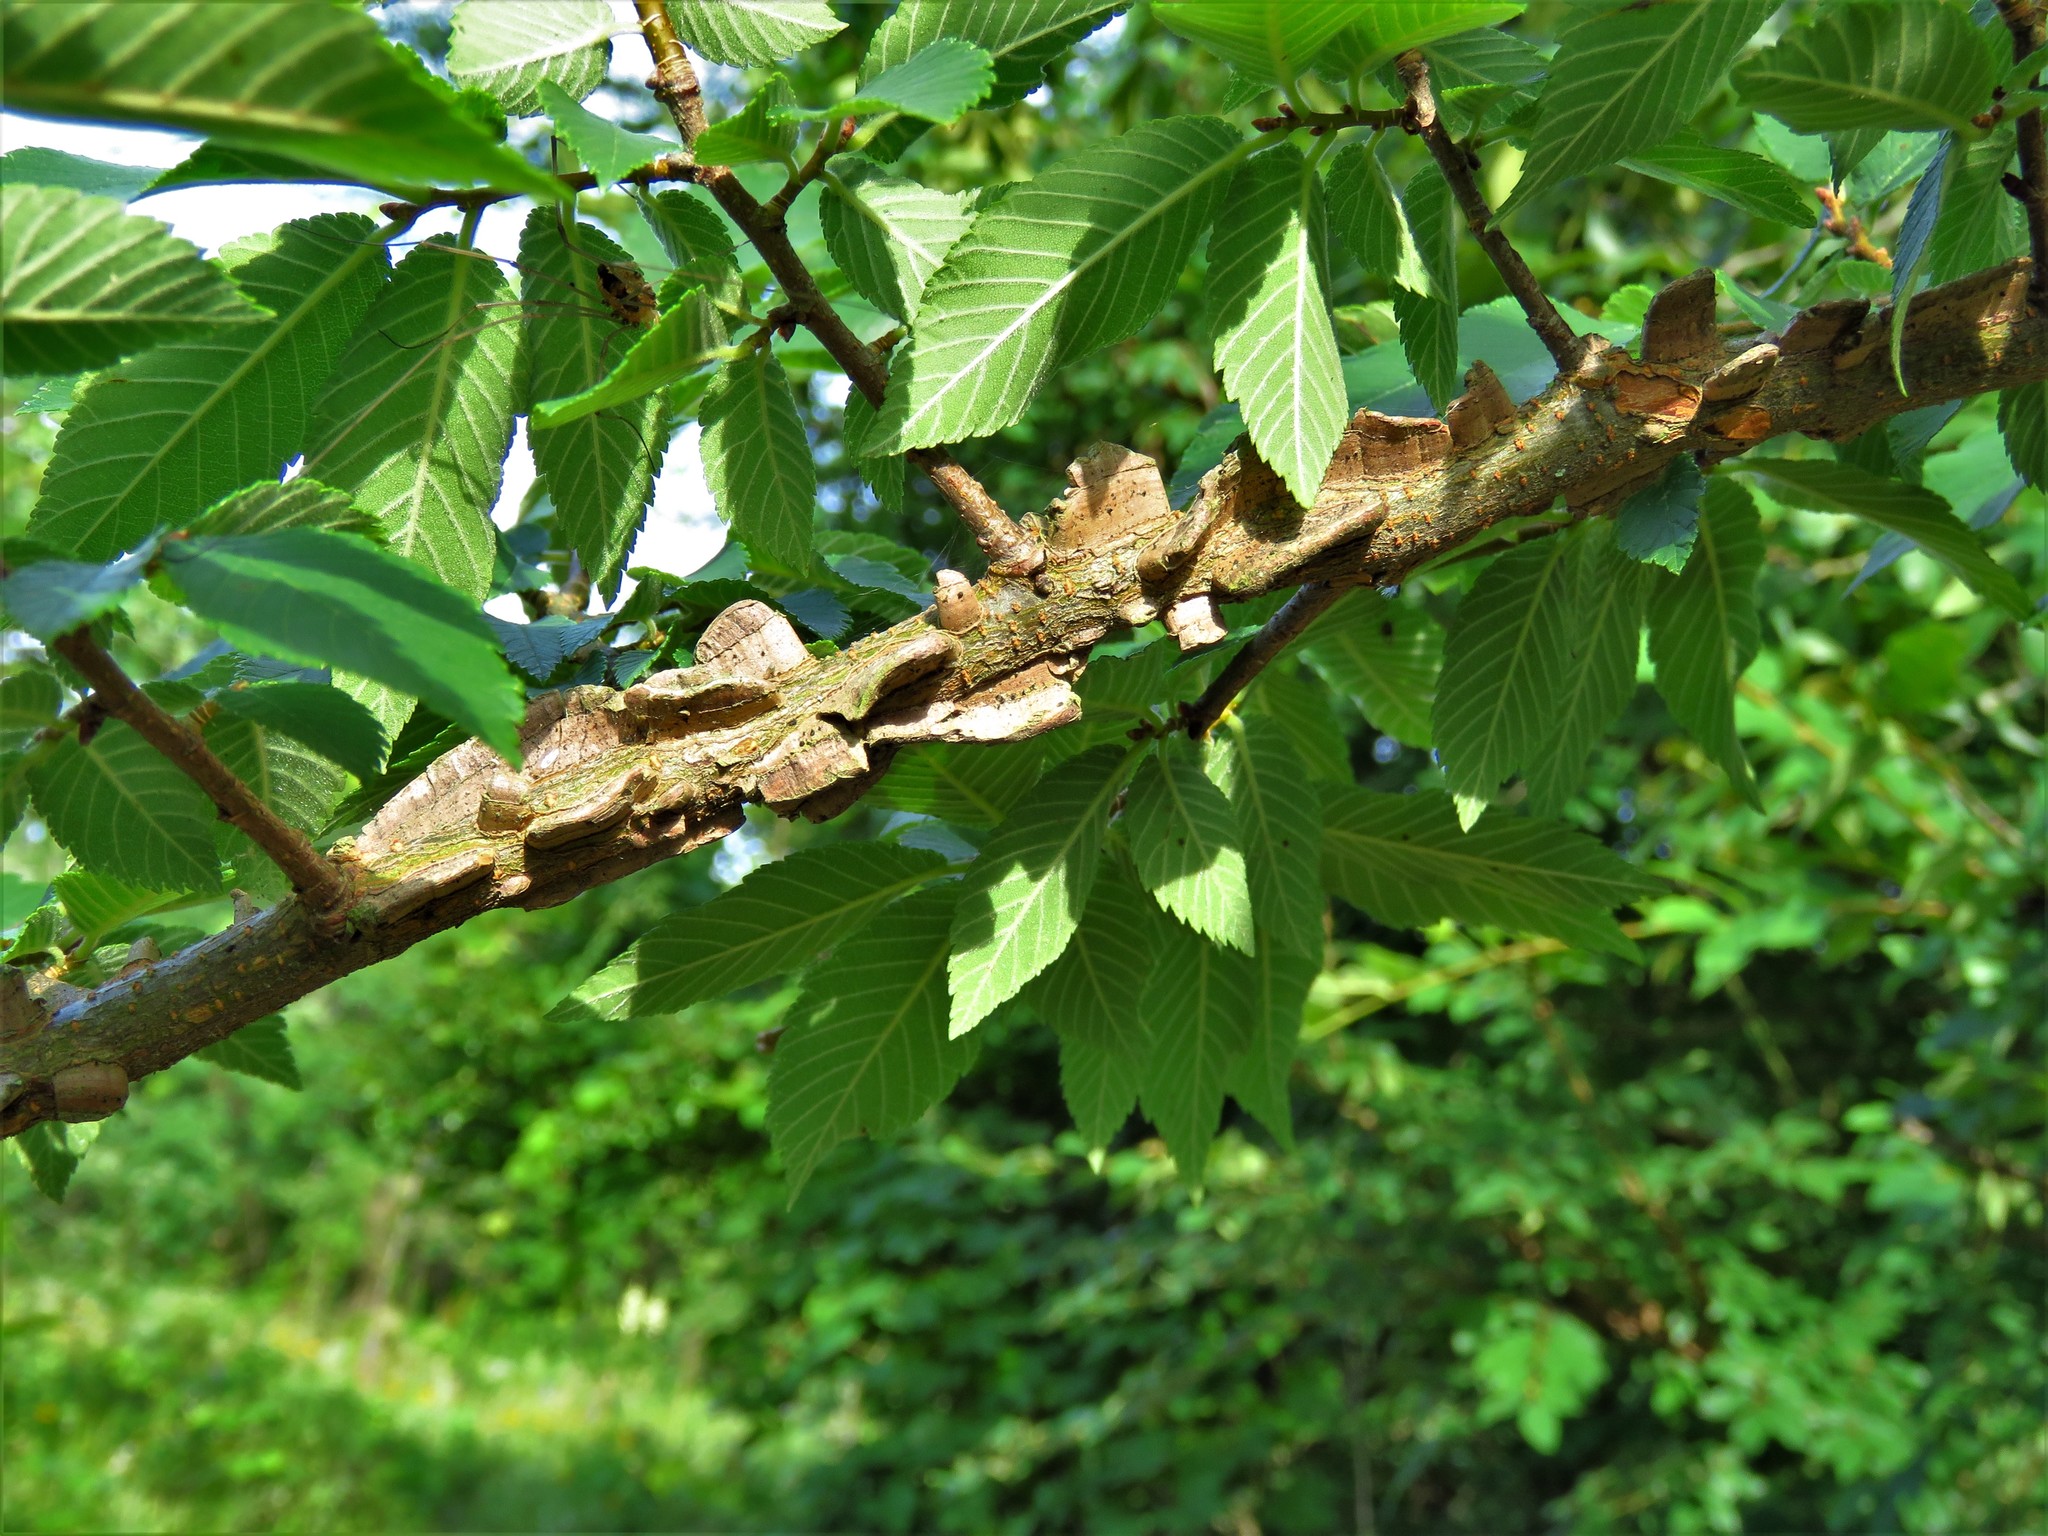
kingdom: Plantae
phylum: Tracheophyta
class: Magnoliopsida
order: Rosales
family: Ulmaceae
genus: Ulmus
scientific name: Ulmus alata
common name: Winged elm
